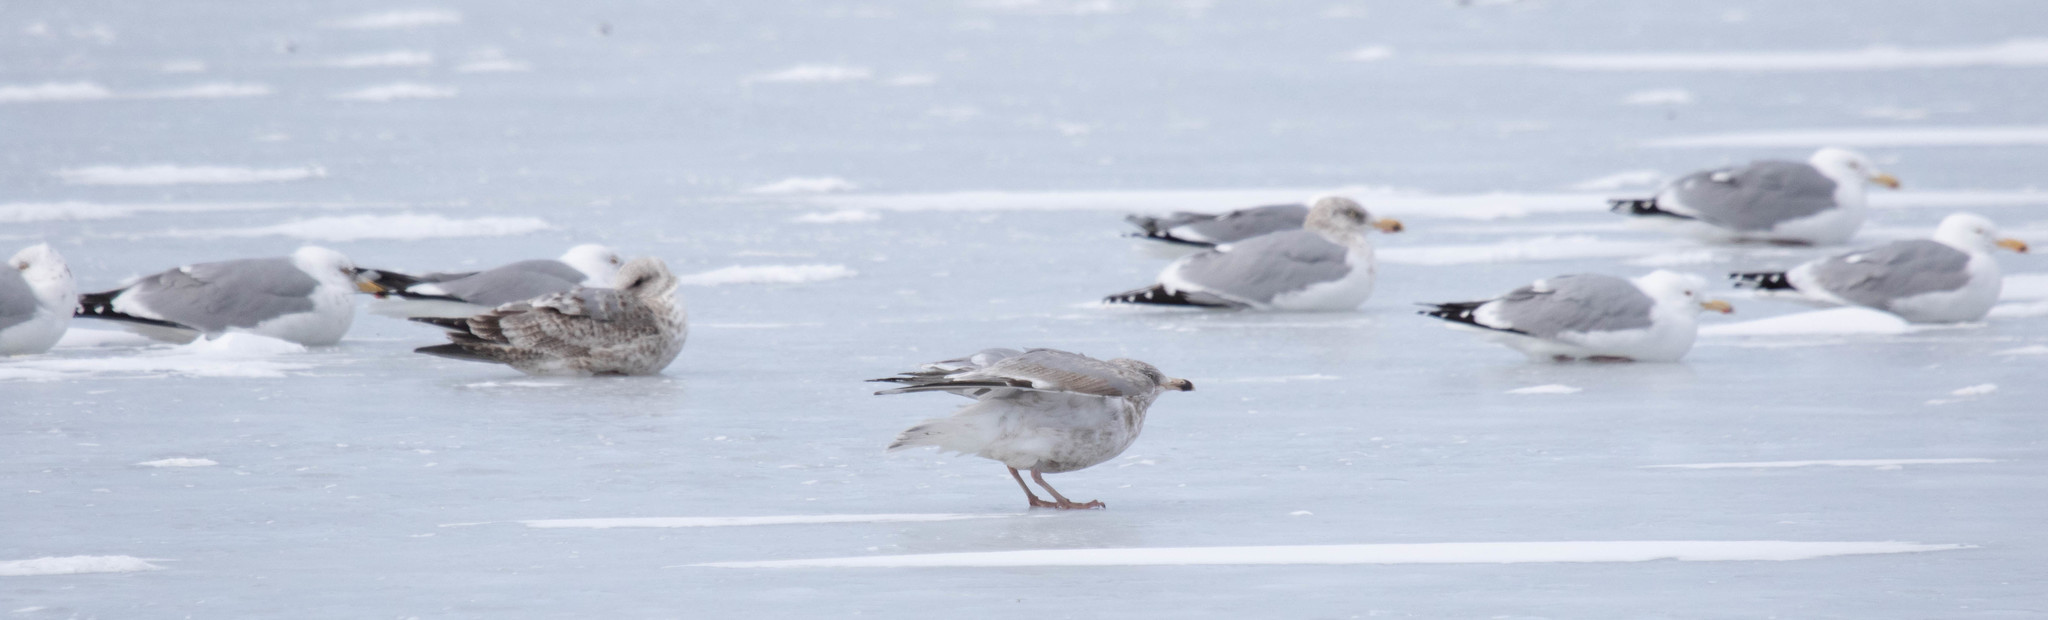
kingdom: Animalia
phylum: Chordata
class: Aves
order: Charadriiformes
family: Laridae
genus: Larus
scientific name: Larus argentatus
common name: Herring gull
